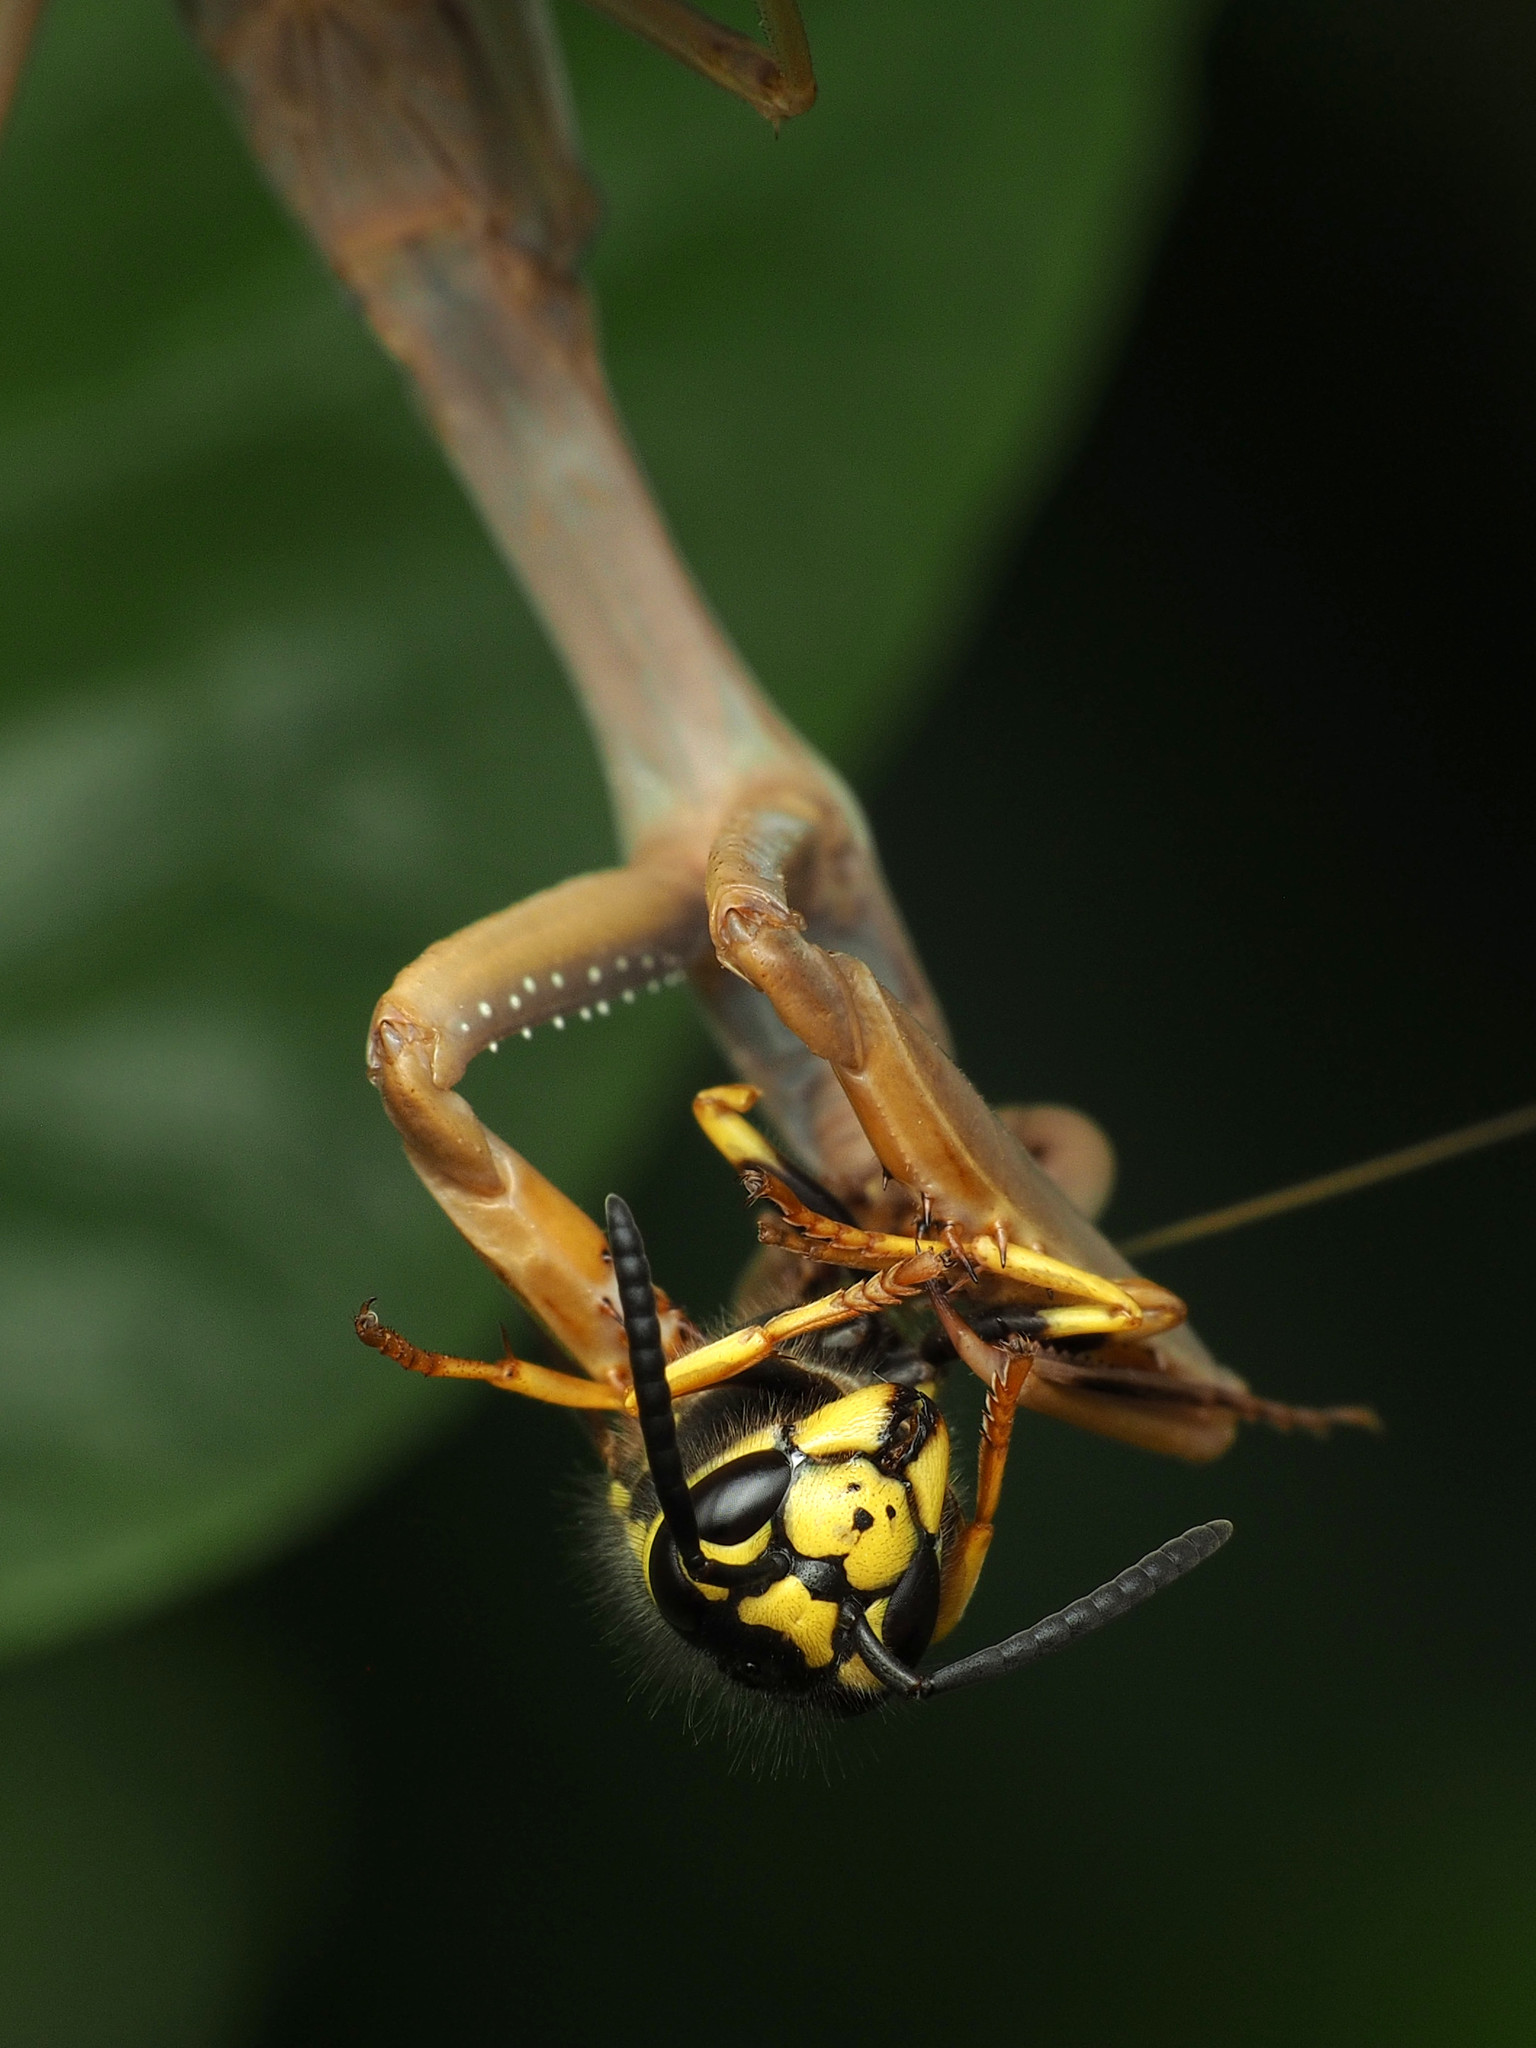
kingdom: Animalia
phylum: Arthropoda
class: Insecta
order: Hymenoptera
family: Vespidae
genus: Vespula
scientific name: Vespula germanica
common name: German wasp
